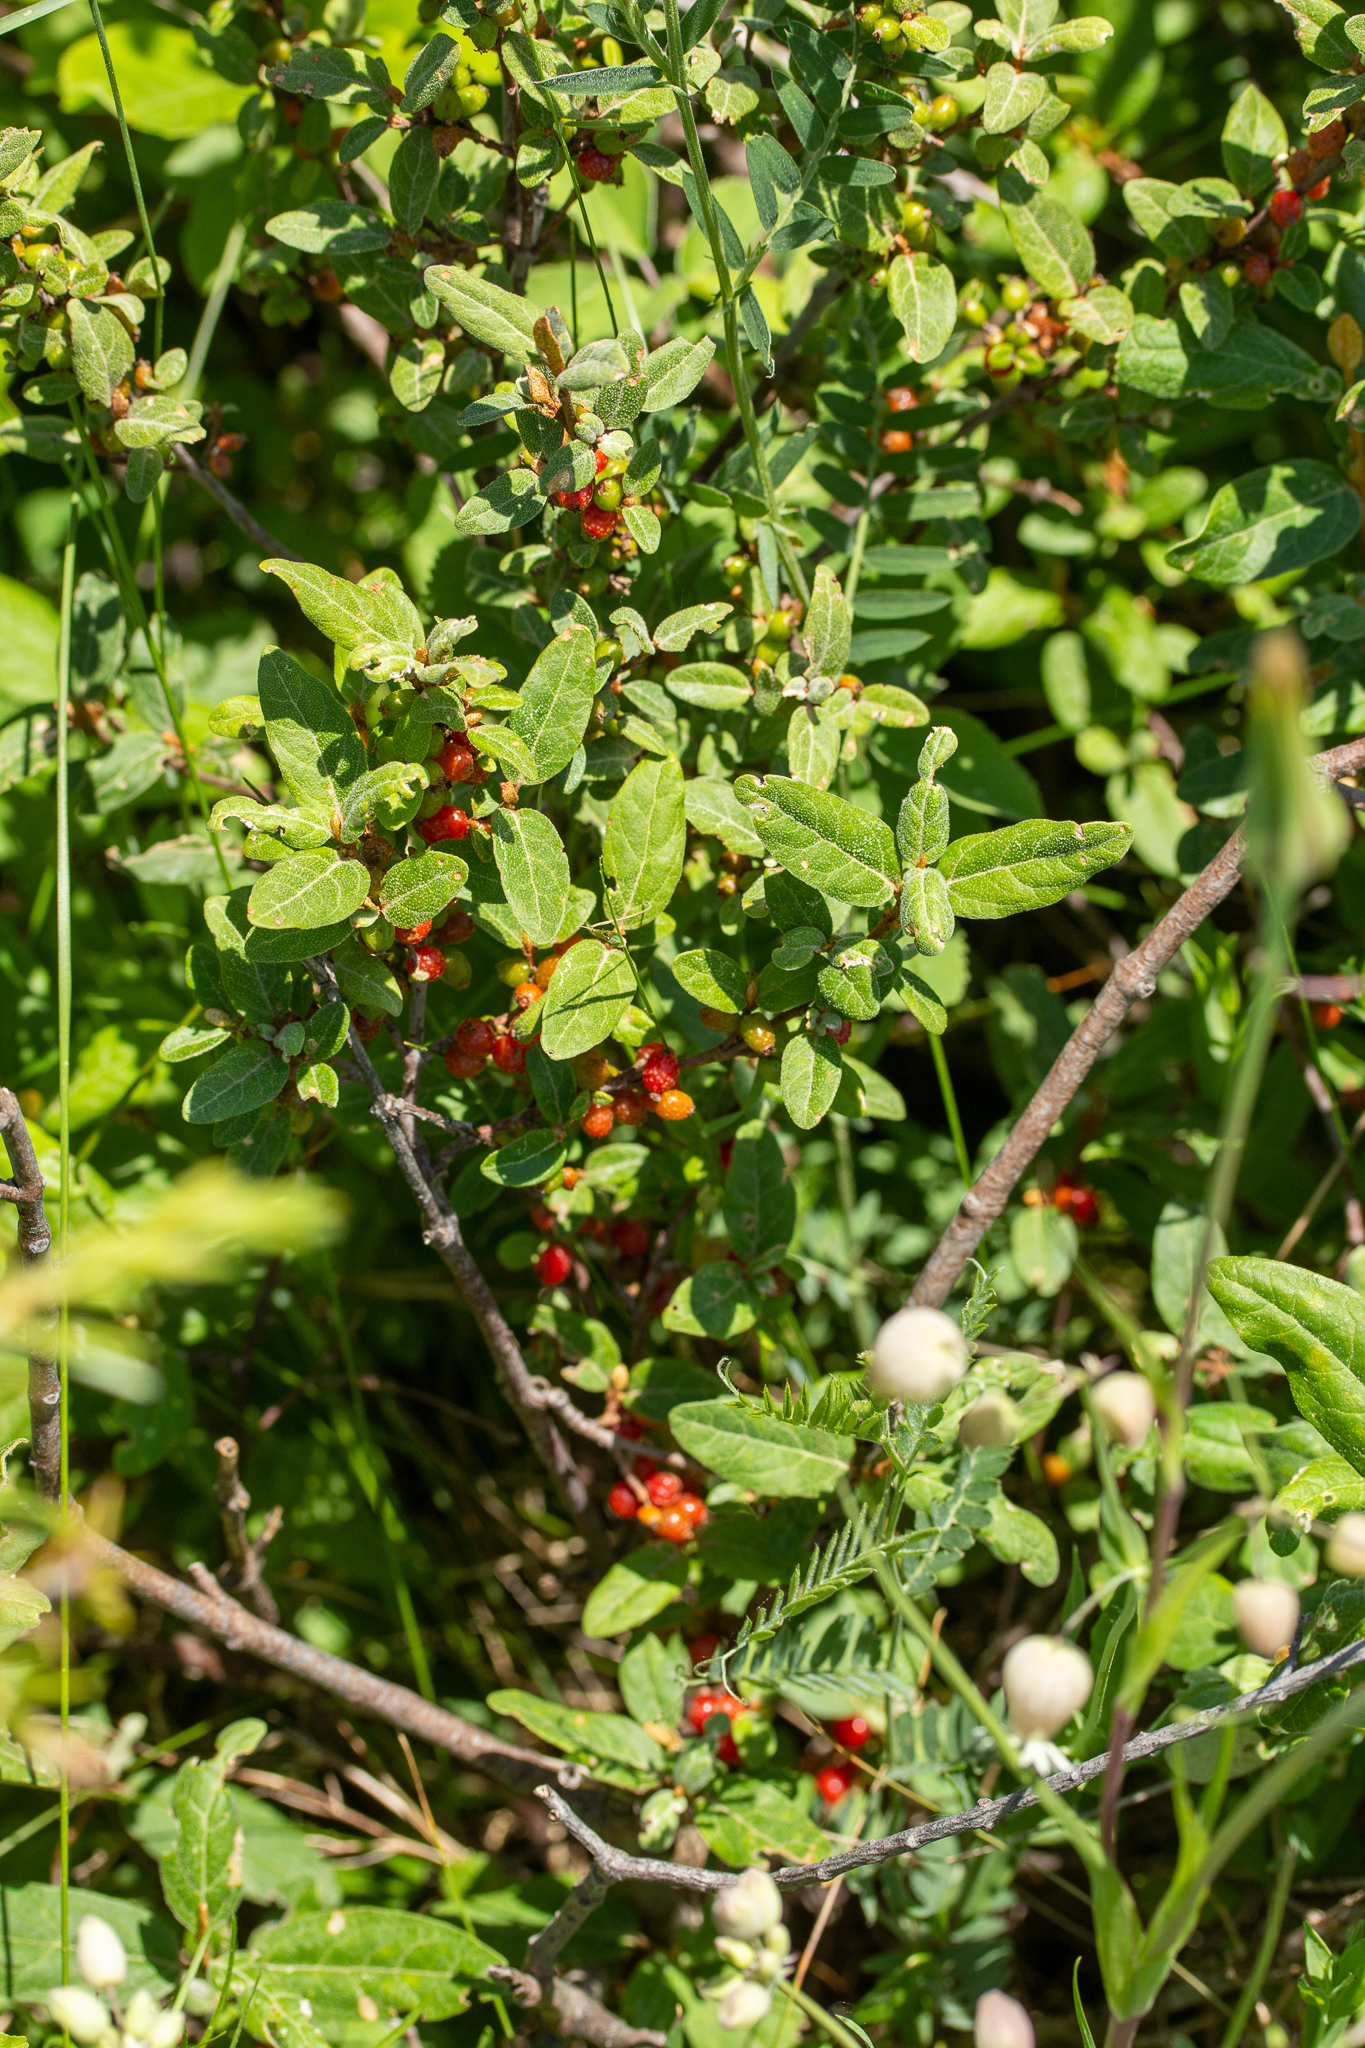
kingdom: Plantae
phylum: Tracheophyta
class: Magnoliopsida
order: Rosales
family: Elaeagnaceae
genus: Shepherdia
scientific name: Shepherdia canadensis
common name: Soapberry
